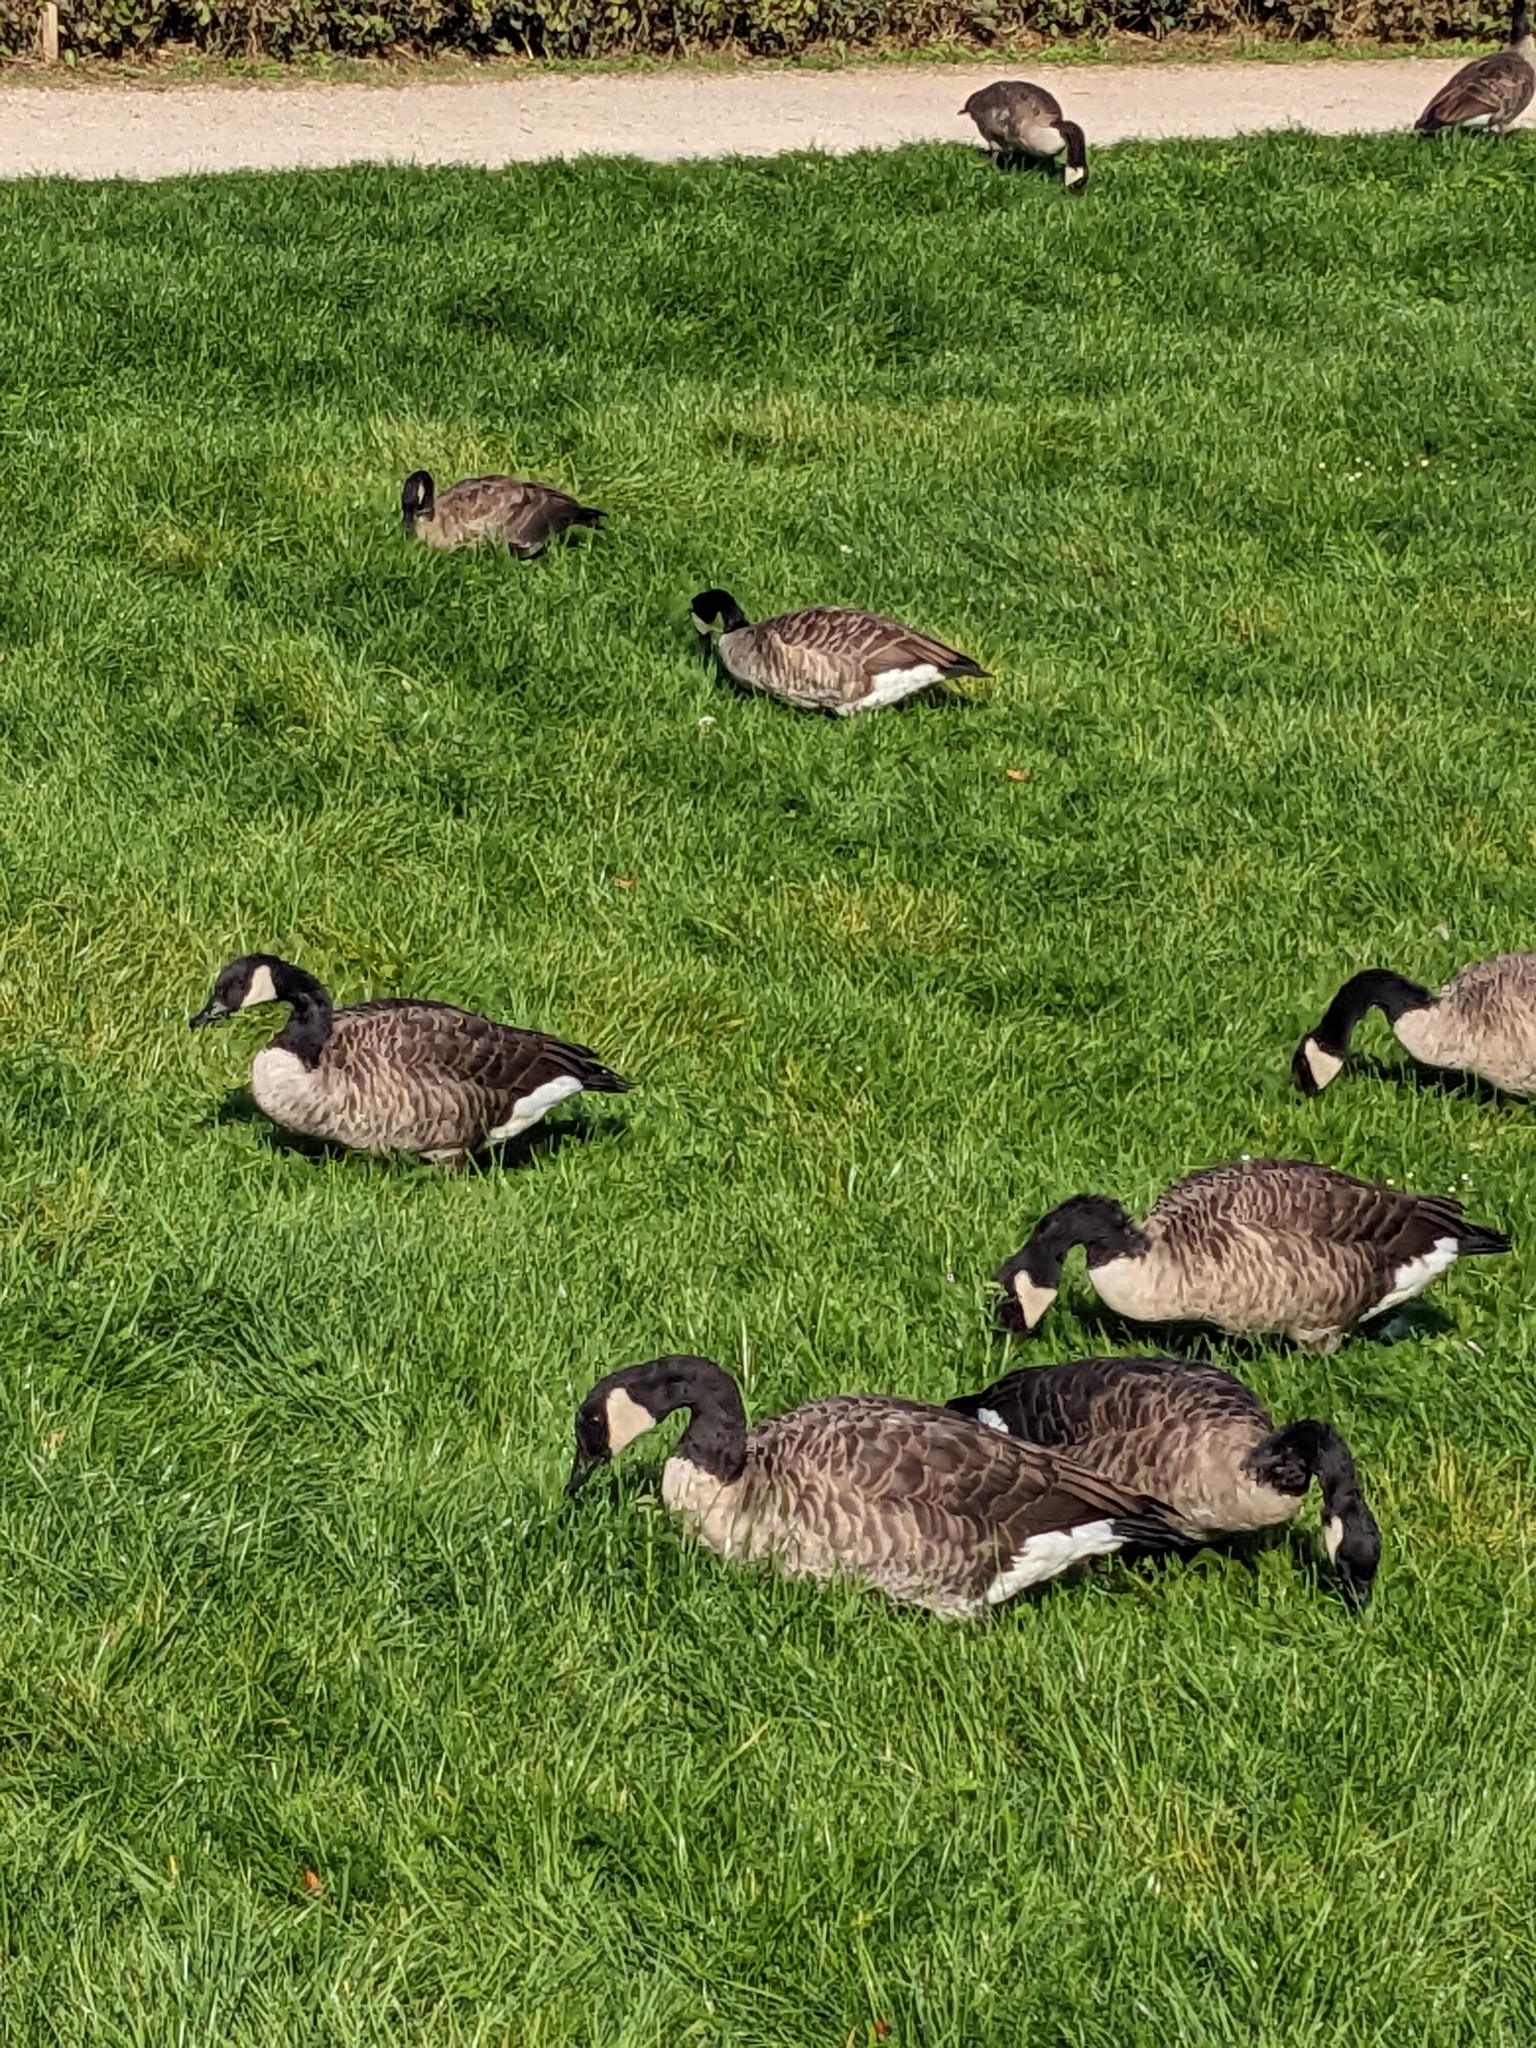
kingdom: Animalia
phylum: Chordata
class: Aves
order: Anseriformes
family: Anatidae
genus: Branta
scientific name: Branta canadensis
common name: Canada goose
